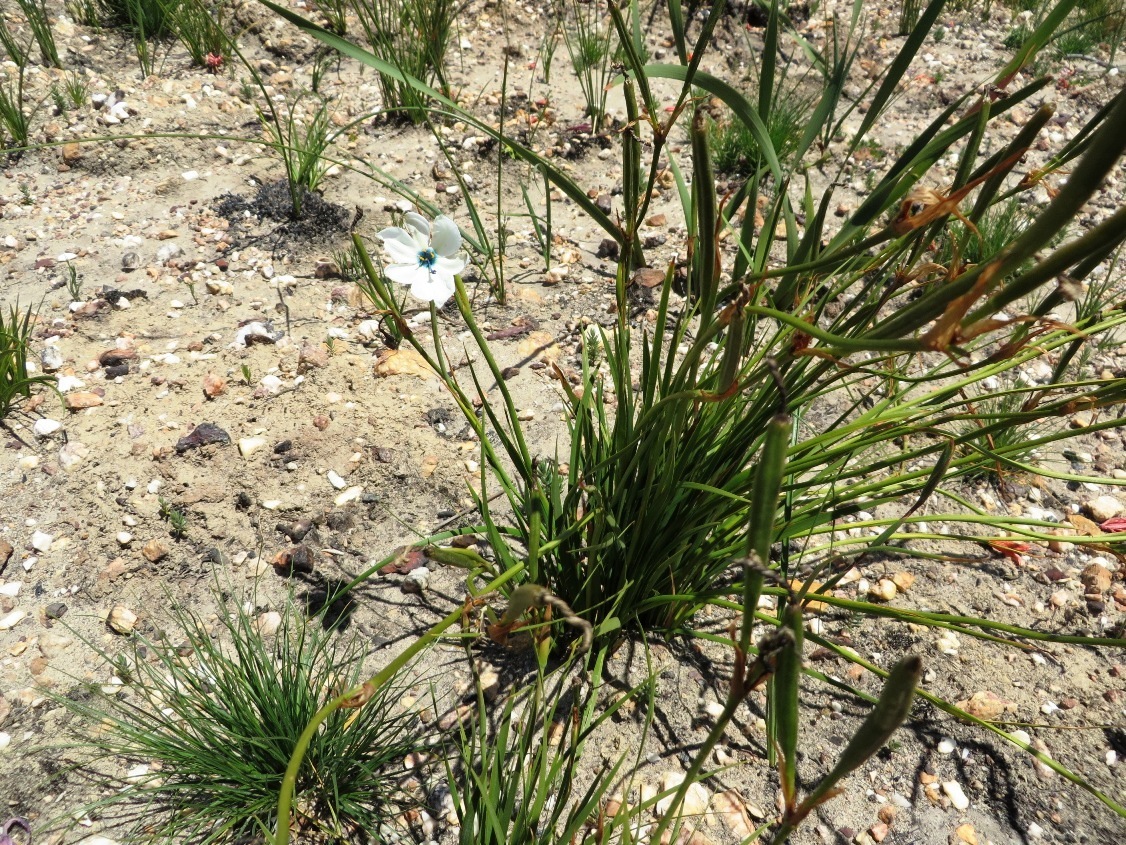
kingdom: Plantae
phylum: Tracheophyta
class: Liliopsida
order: Asparagales
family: Iridaceae
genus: Aristea
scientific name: Aristea cantharophila
